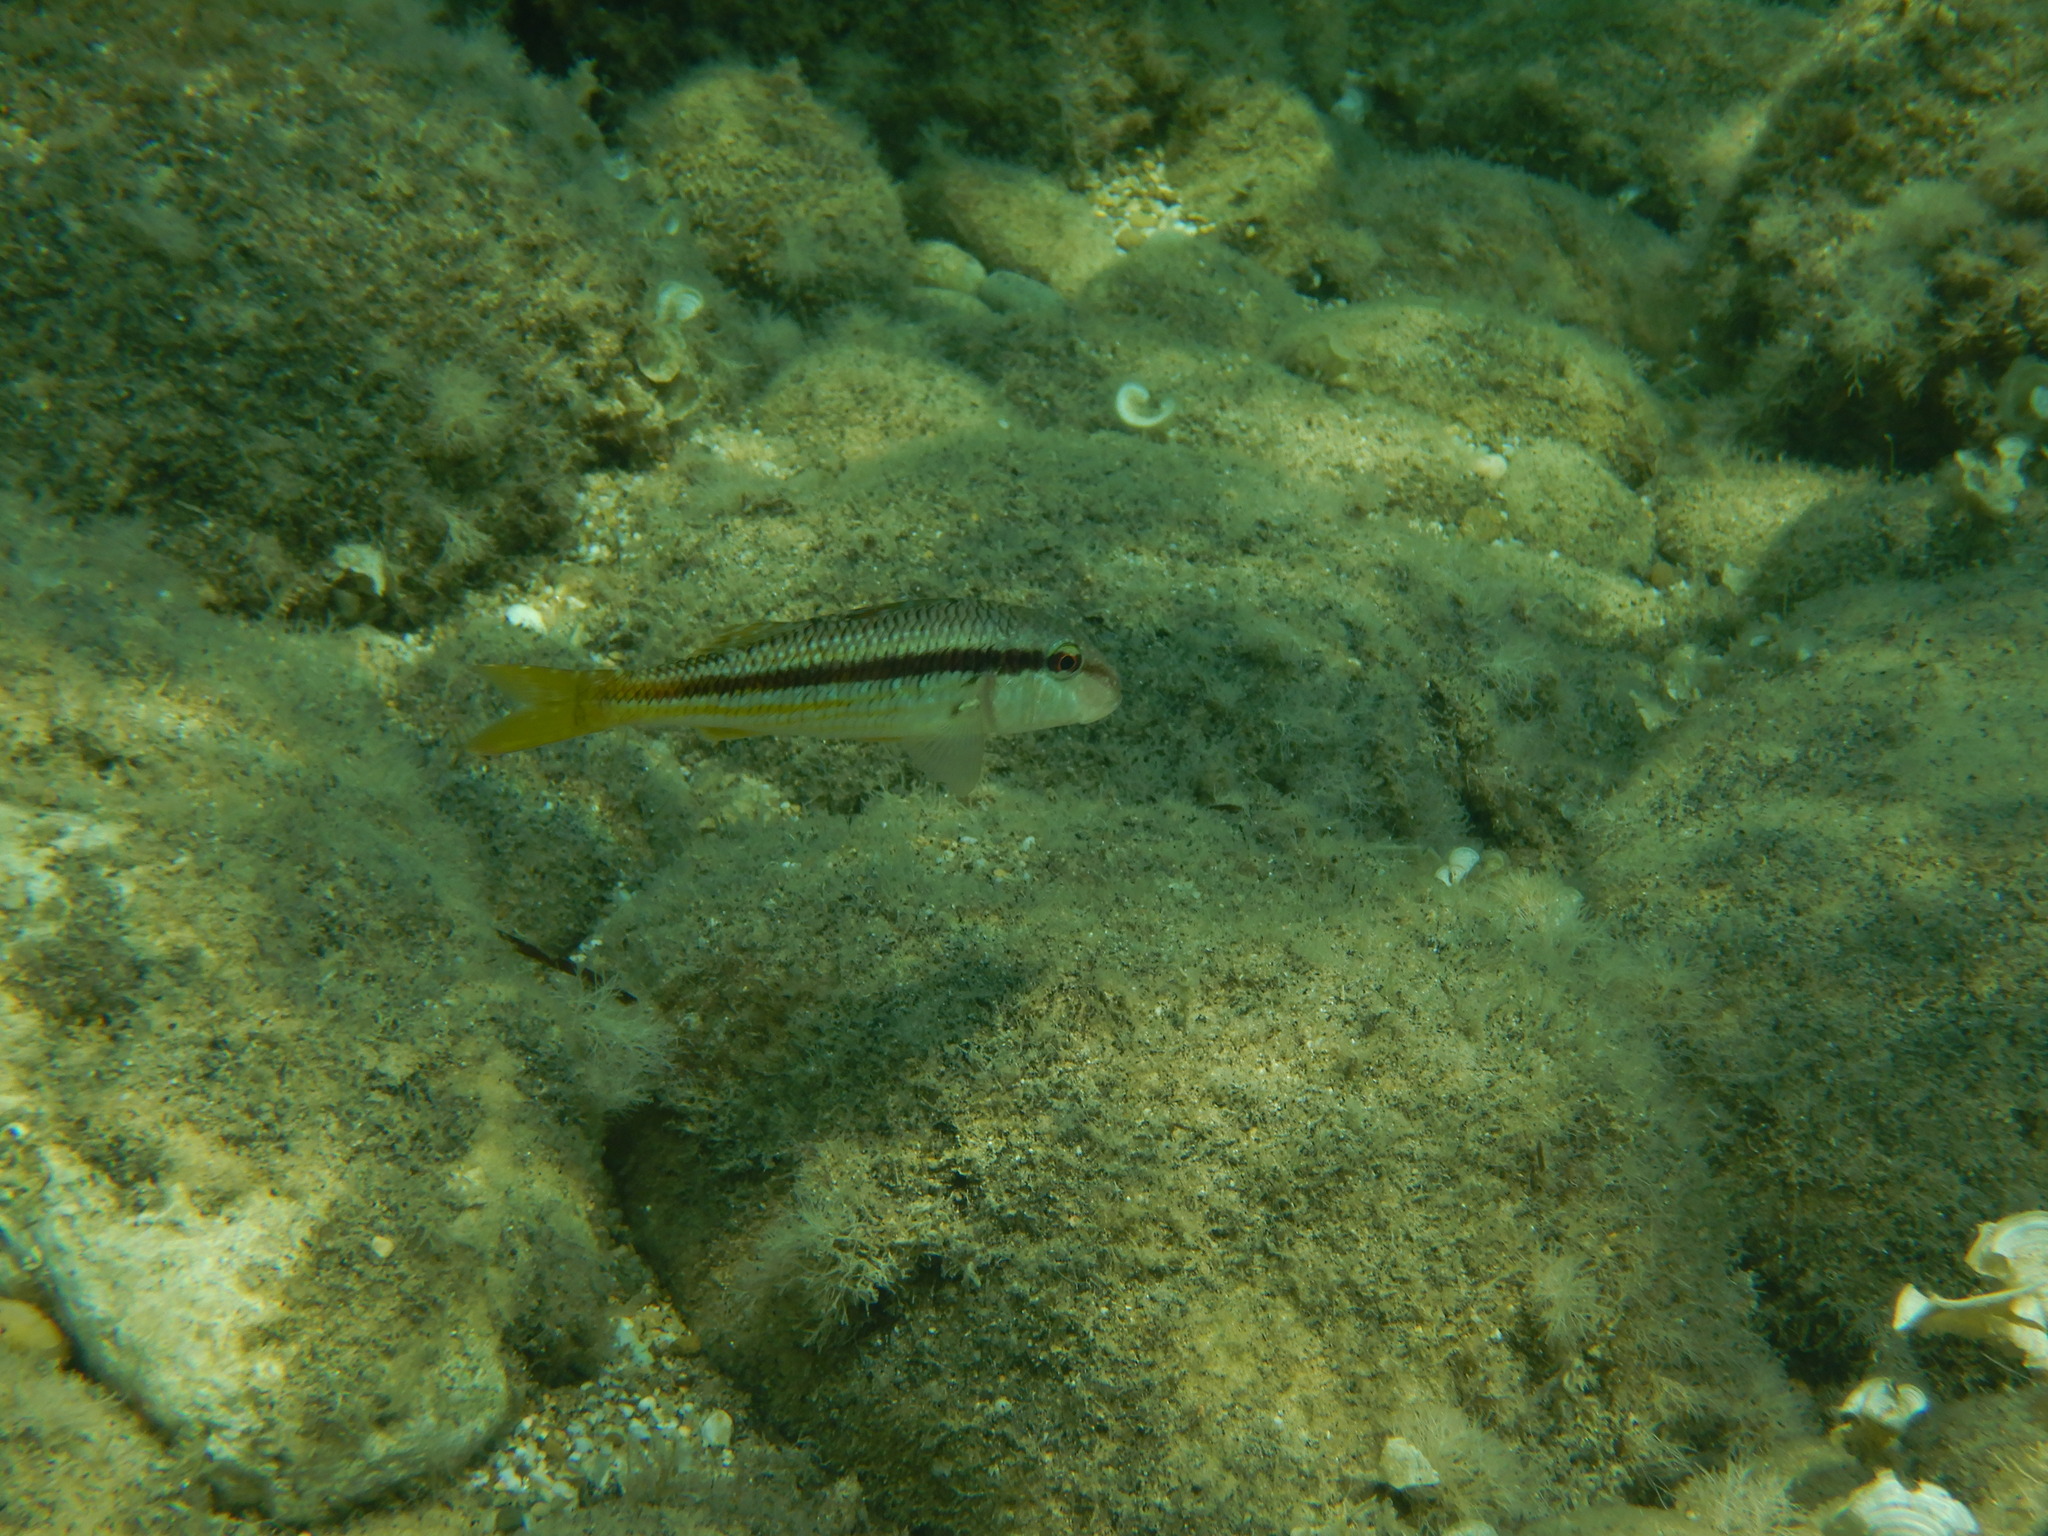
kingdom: Animalia
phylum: Chordata
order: Perciformes
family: Mullidae
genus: Mullus
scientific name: Mullus surmuletus
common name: Red mullet
